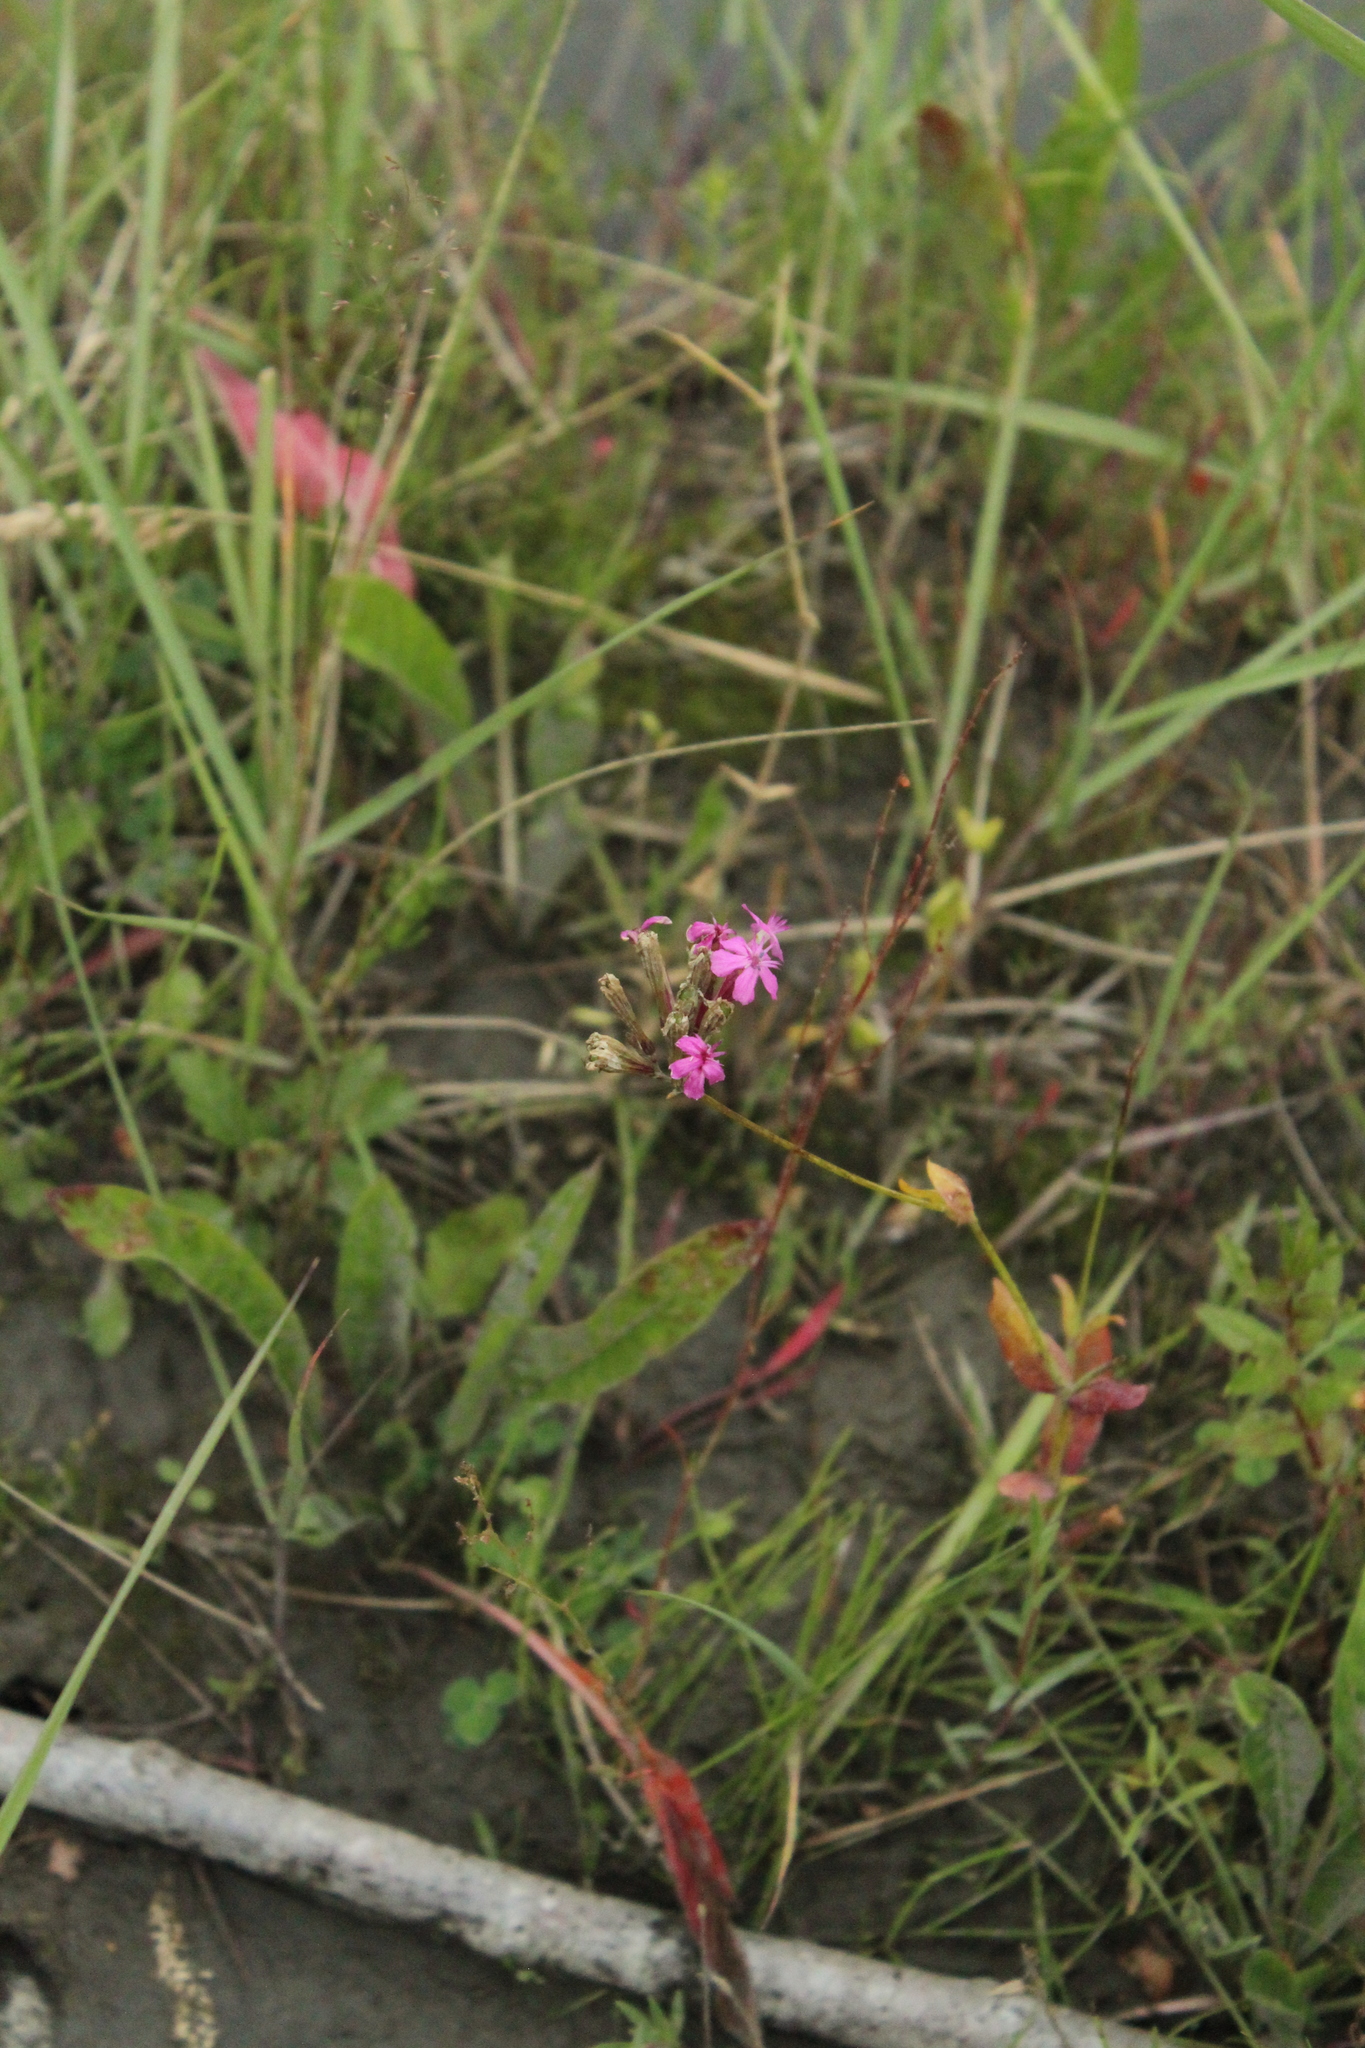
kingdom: Plantae
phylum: Tracheophyta
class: Magnoliopsida
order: Caryophyllales
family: Caryophyllaceae
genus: Atocion
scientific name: Atocion compactum
